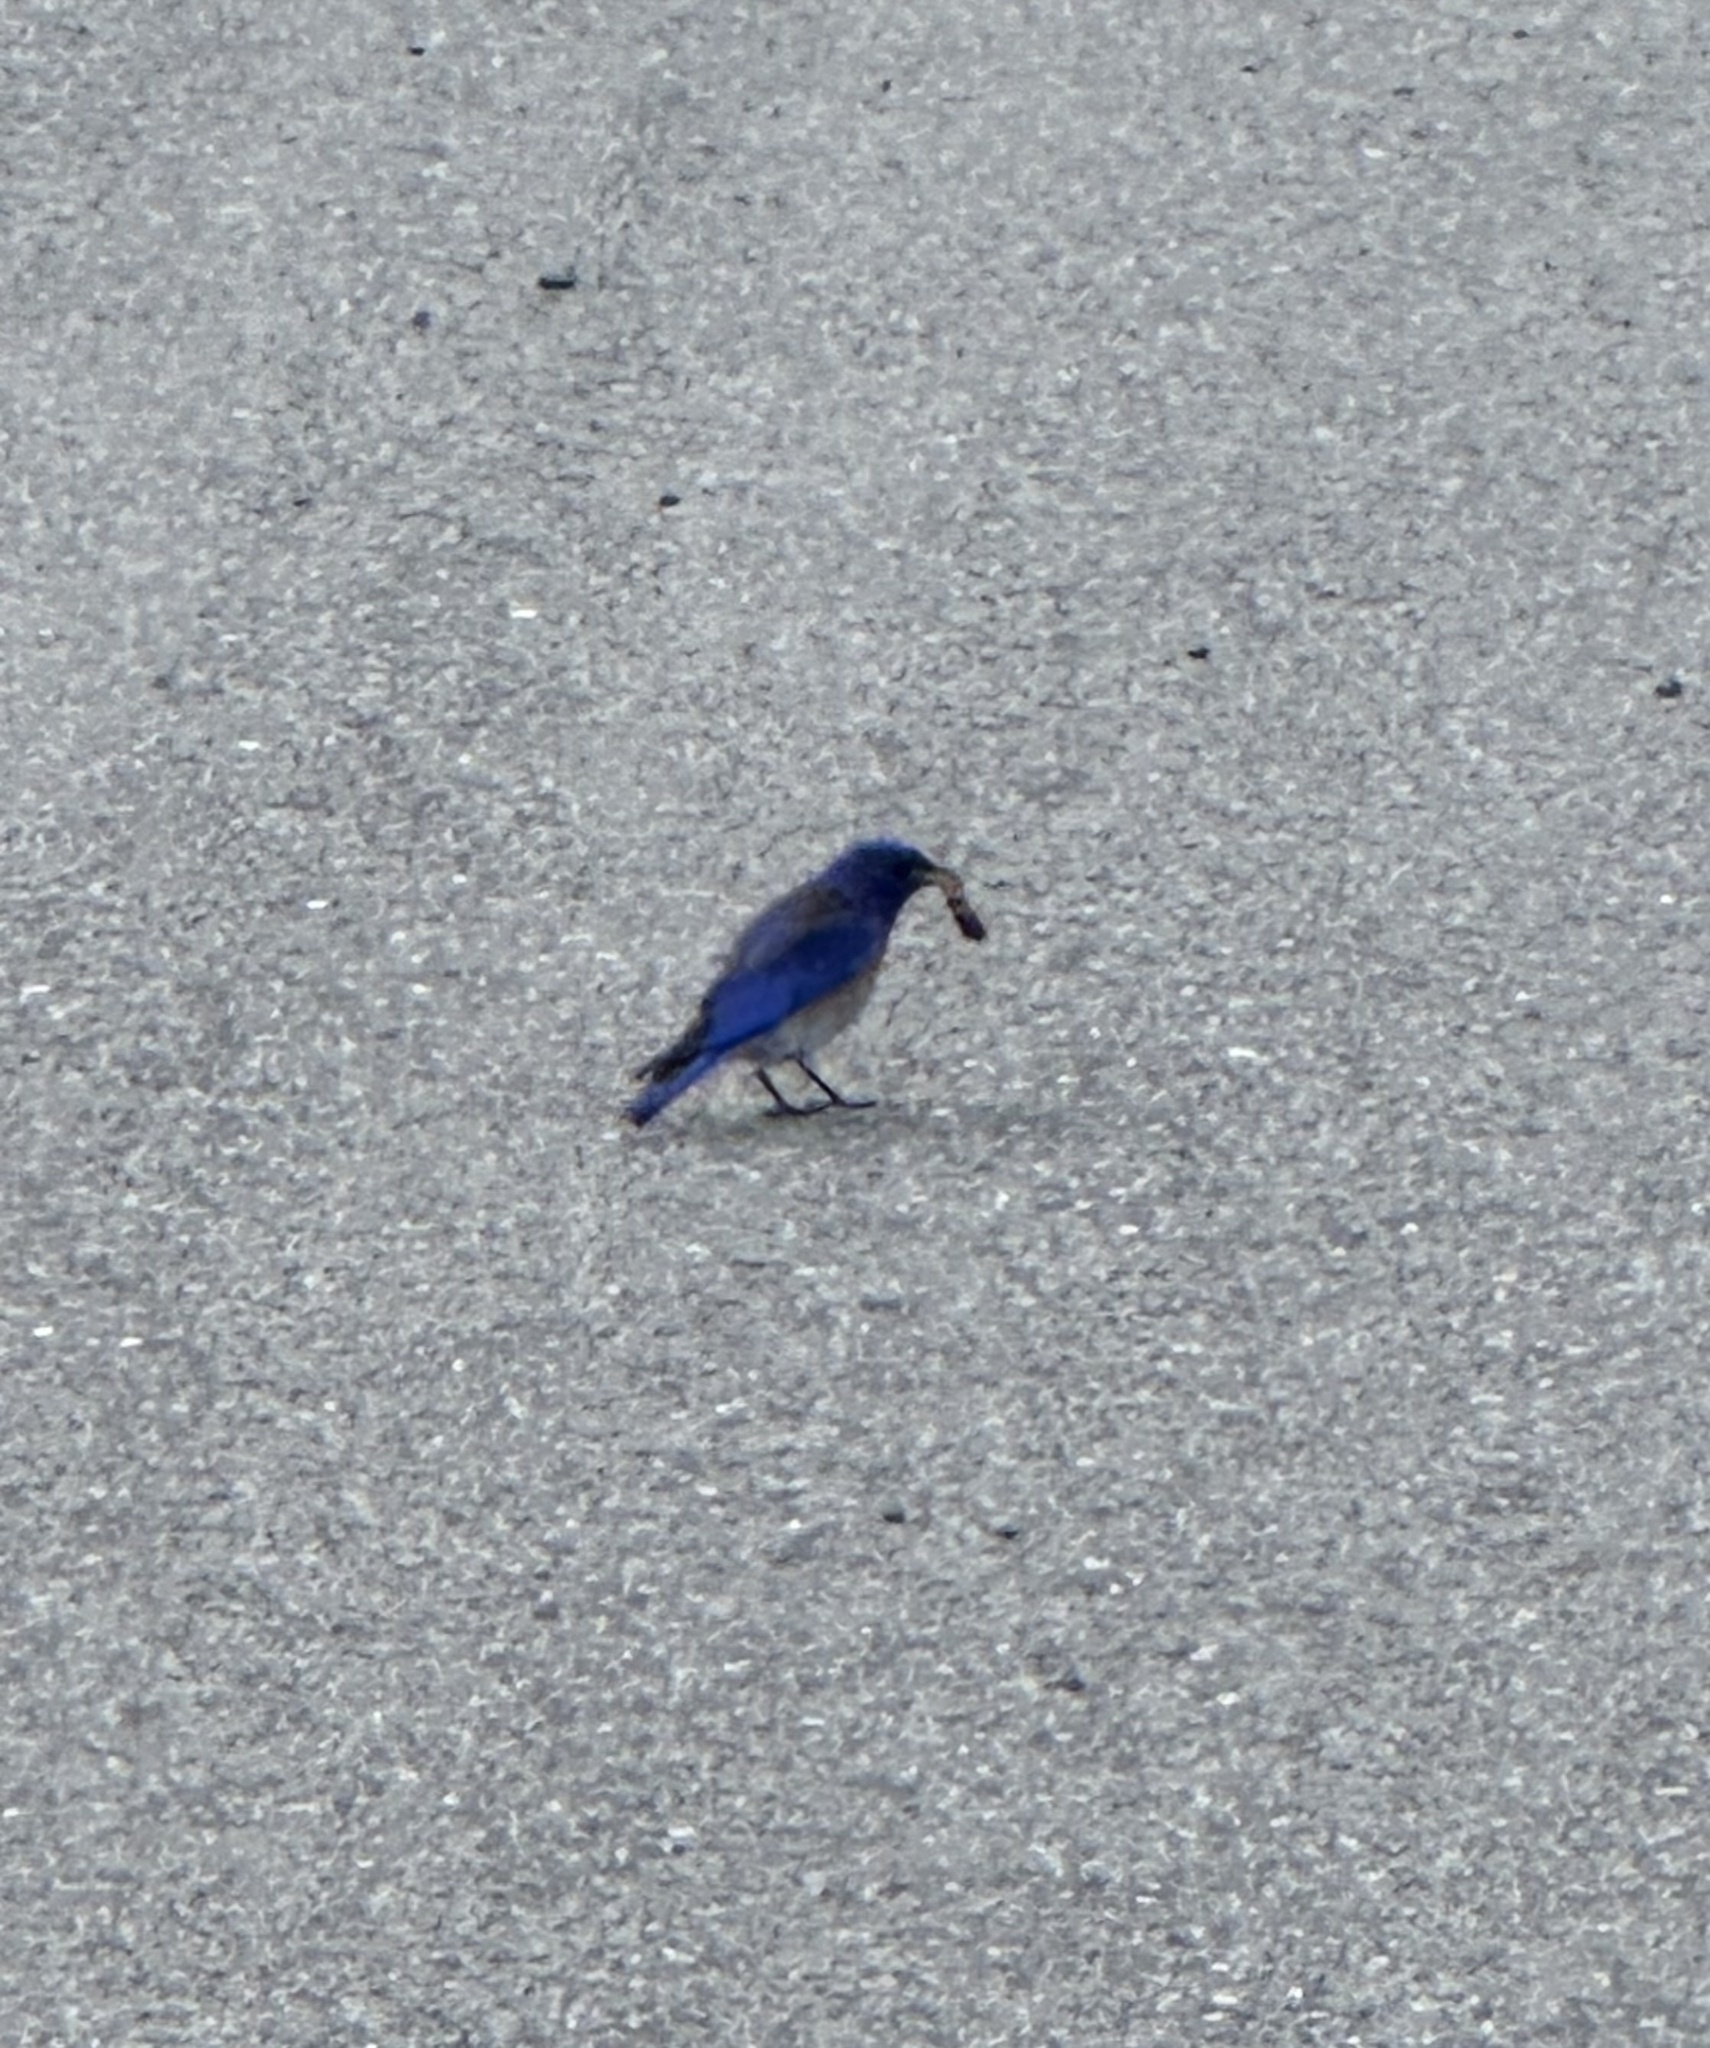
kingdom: Animalia
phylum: Chordata
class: Aves
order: Passeriformes
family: Turdidae
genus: Sialia
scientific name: Sialia mexicana
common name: Western bluebird
